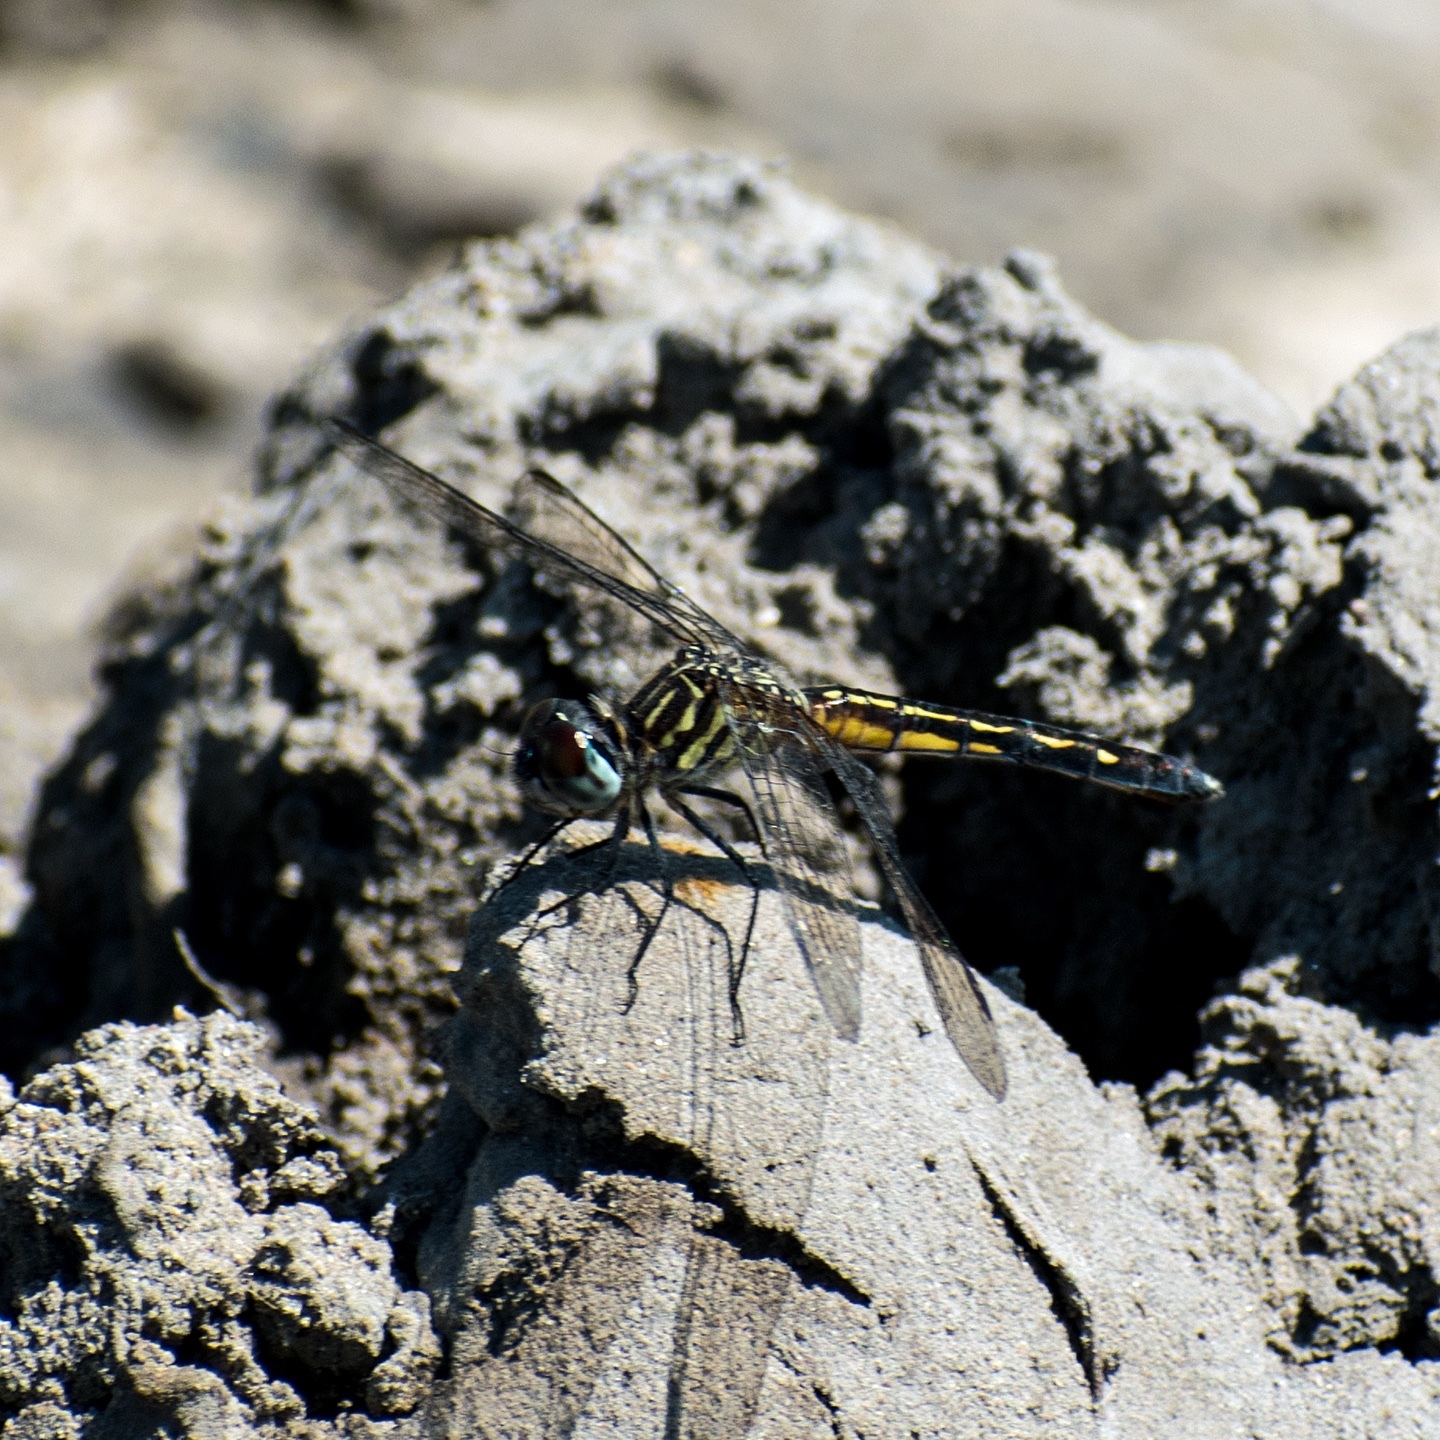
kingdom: Animalia
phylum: Arthropoda
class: Insecta
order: Odonata
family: Libellulidae
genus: Pachydiplax
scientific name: Pachydiplax longipennis
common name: Blue dasher
